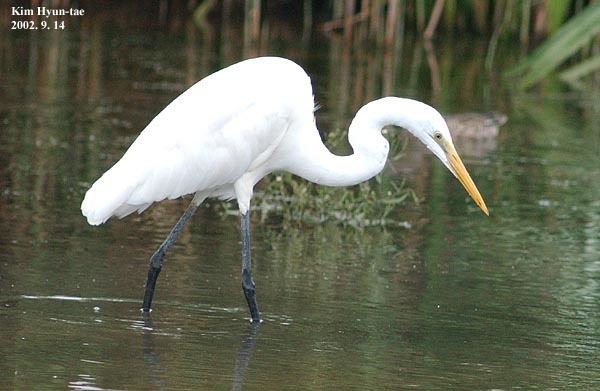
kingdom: Animalia
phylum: Chordata
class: Aves
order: Pelecaniformes
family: Ardeidae
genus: Ardea
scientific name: Ardea modesta
